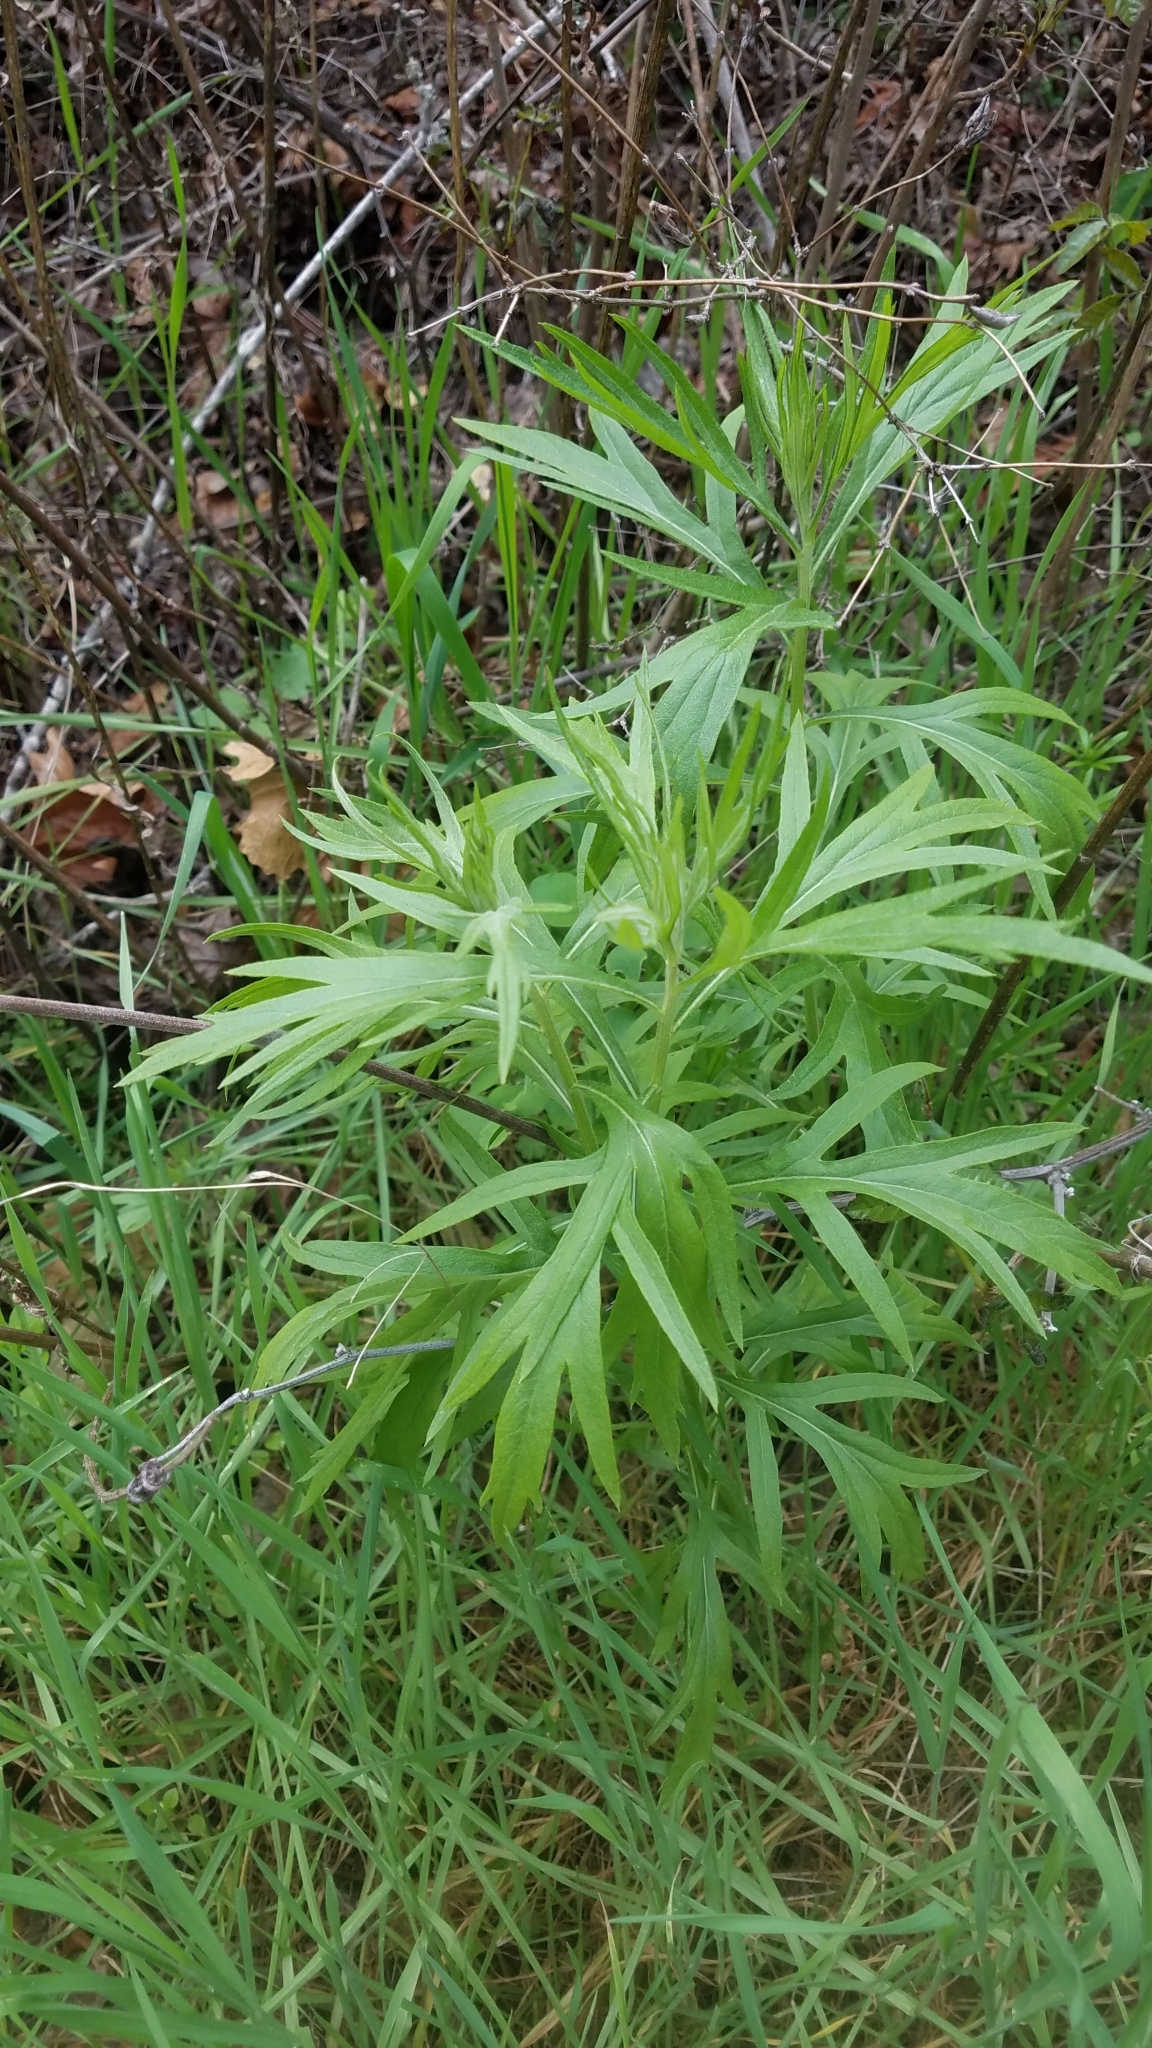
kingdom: Plantae
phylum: Tracheophyta
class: Magnoliopsida
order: Asterales
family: Asteraceae
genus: Artemisia
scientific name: Artemisia douglasiana
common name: Northwest mugwort
